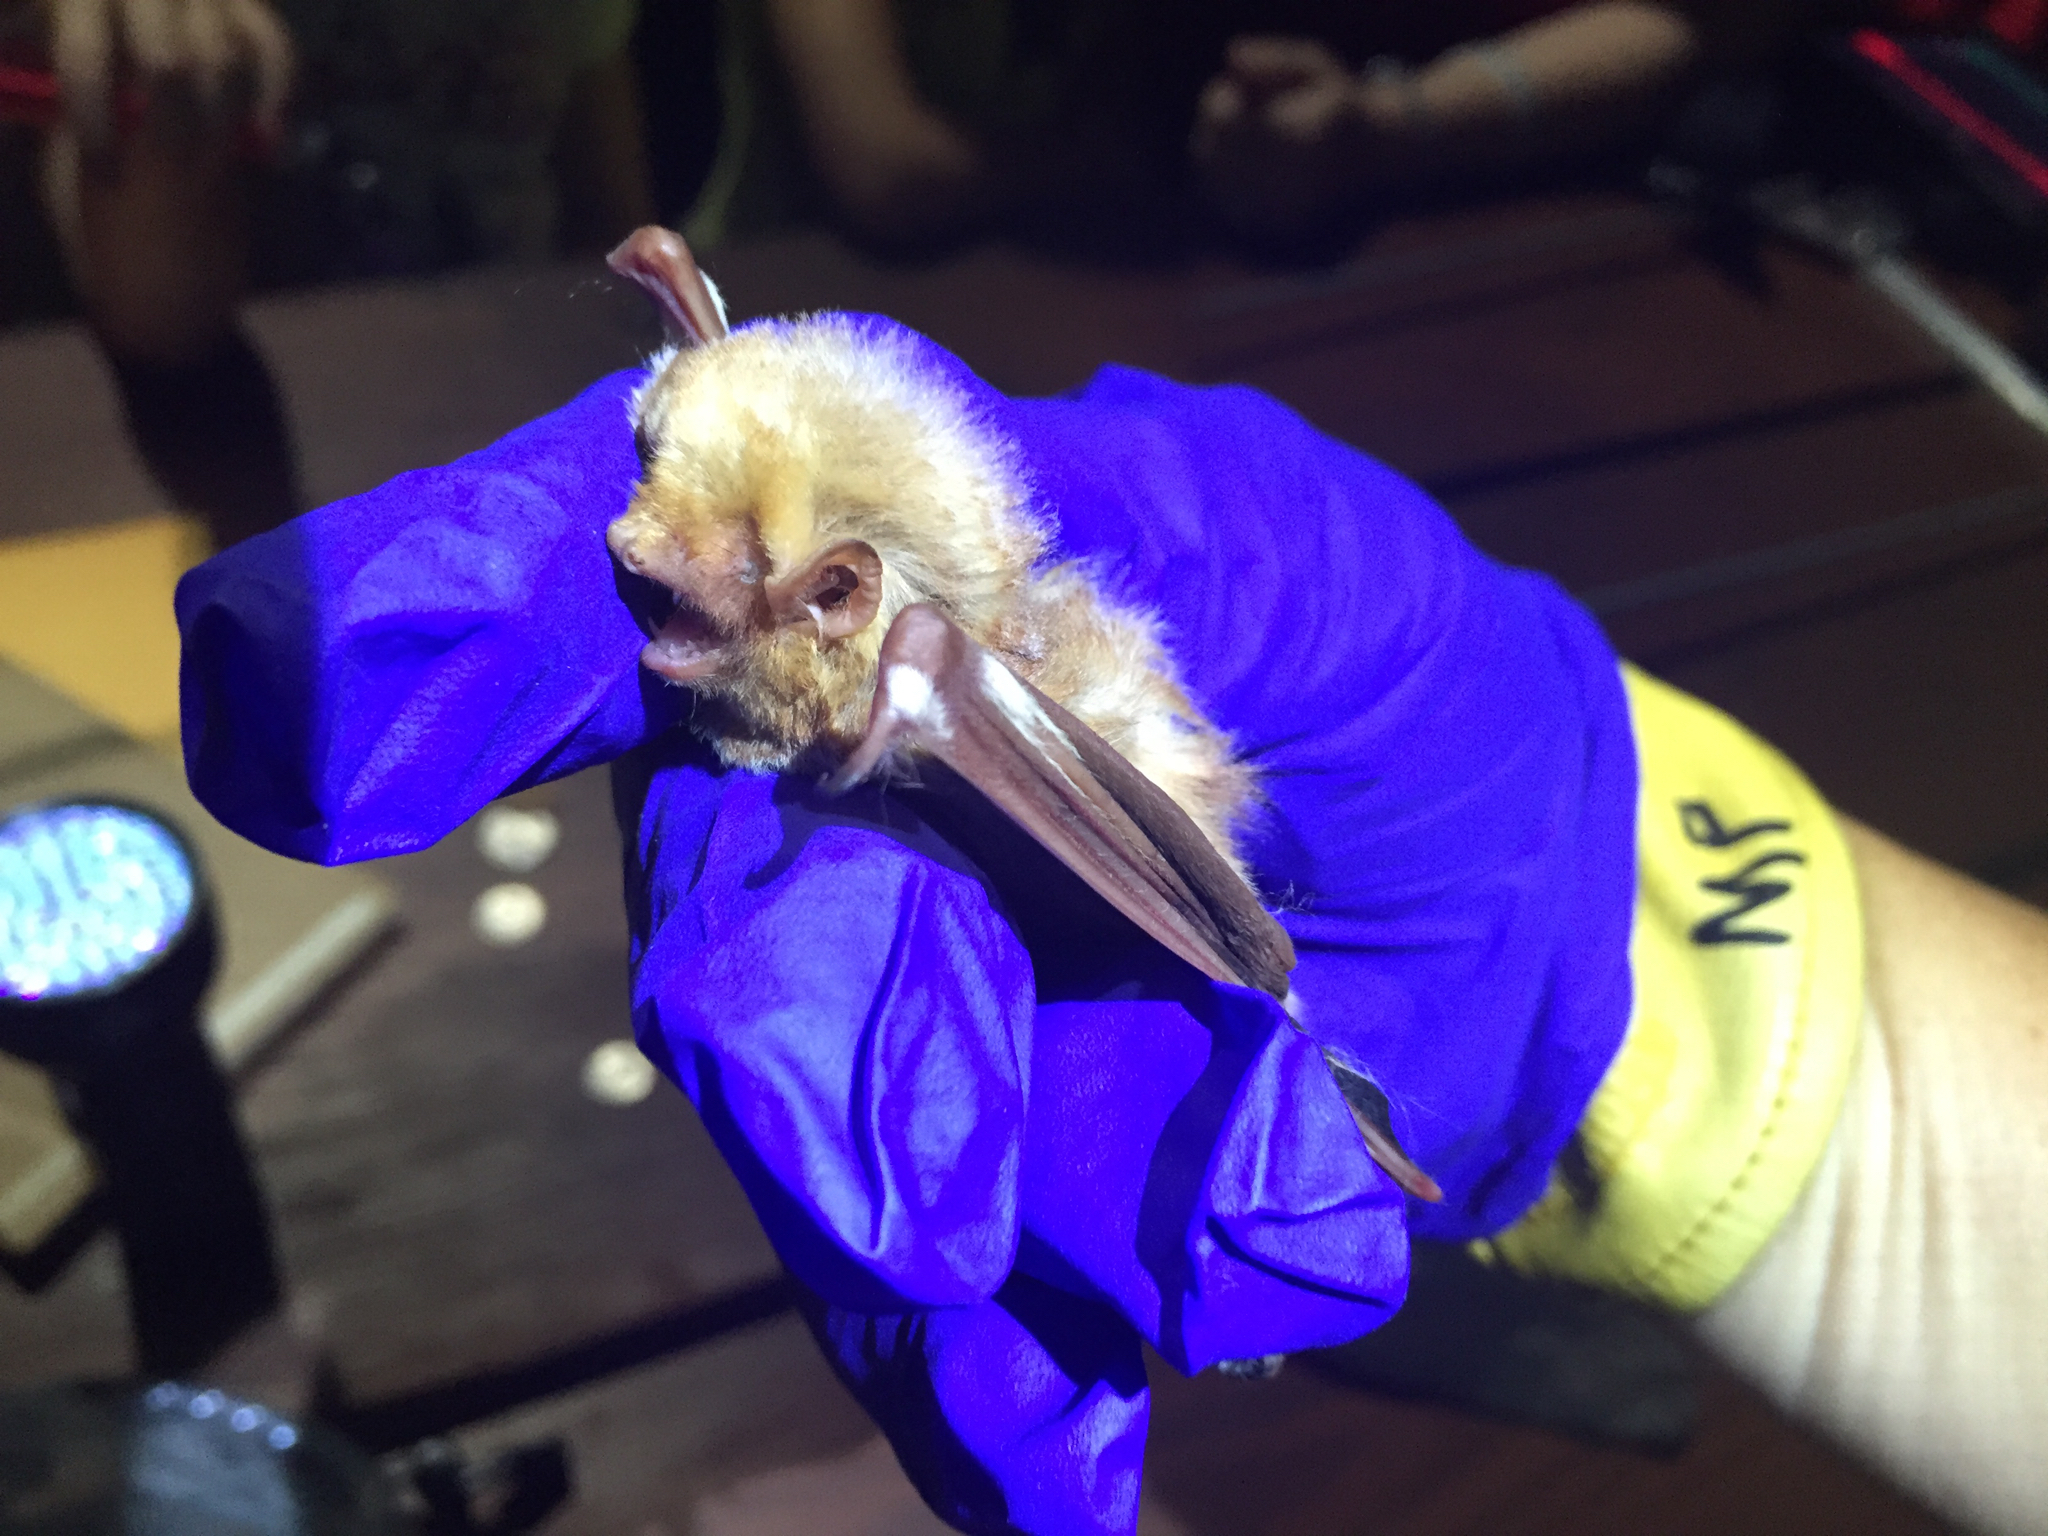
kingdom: Animalia
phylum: Chordata
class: Mammalia
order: Chiroptera
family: Vespertilionidae
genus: Lasiurus
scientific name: Lasiurus borealis
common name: Eastern red bat
